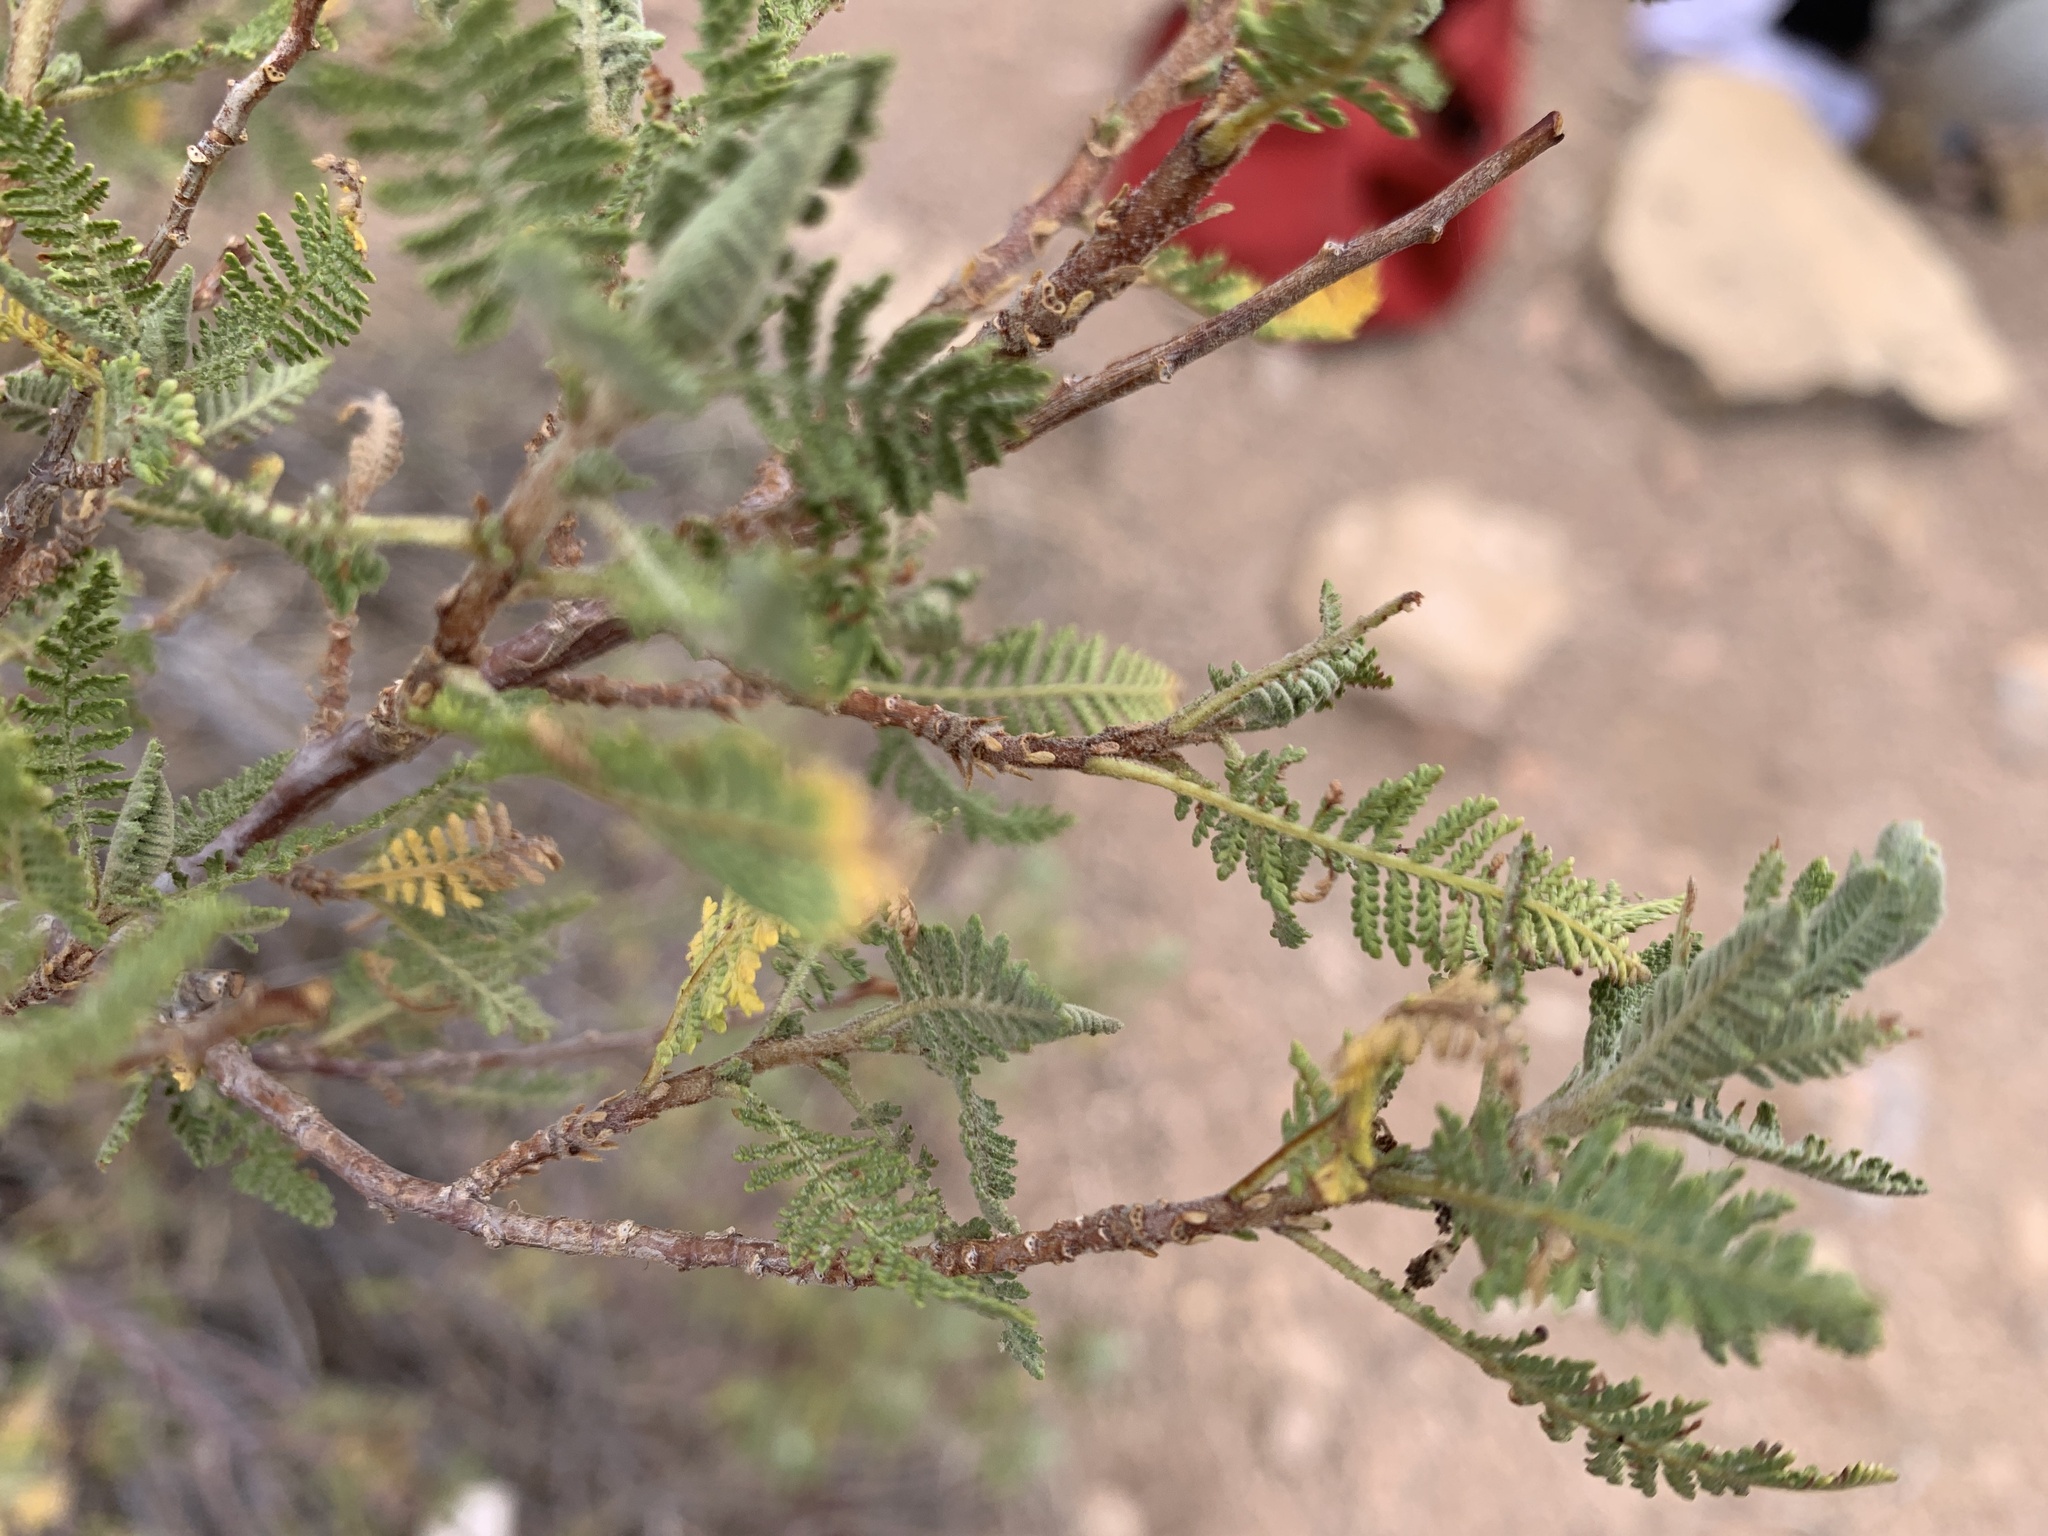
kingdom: Plantae
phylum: Tracheophyta
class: Magnoliopsida
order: Rosales
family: Rosaceae
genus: Chamaebatiaria
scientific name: Chamaebatiaria millefolium
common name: Fernbush
